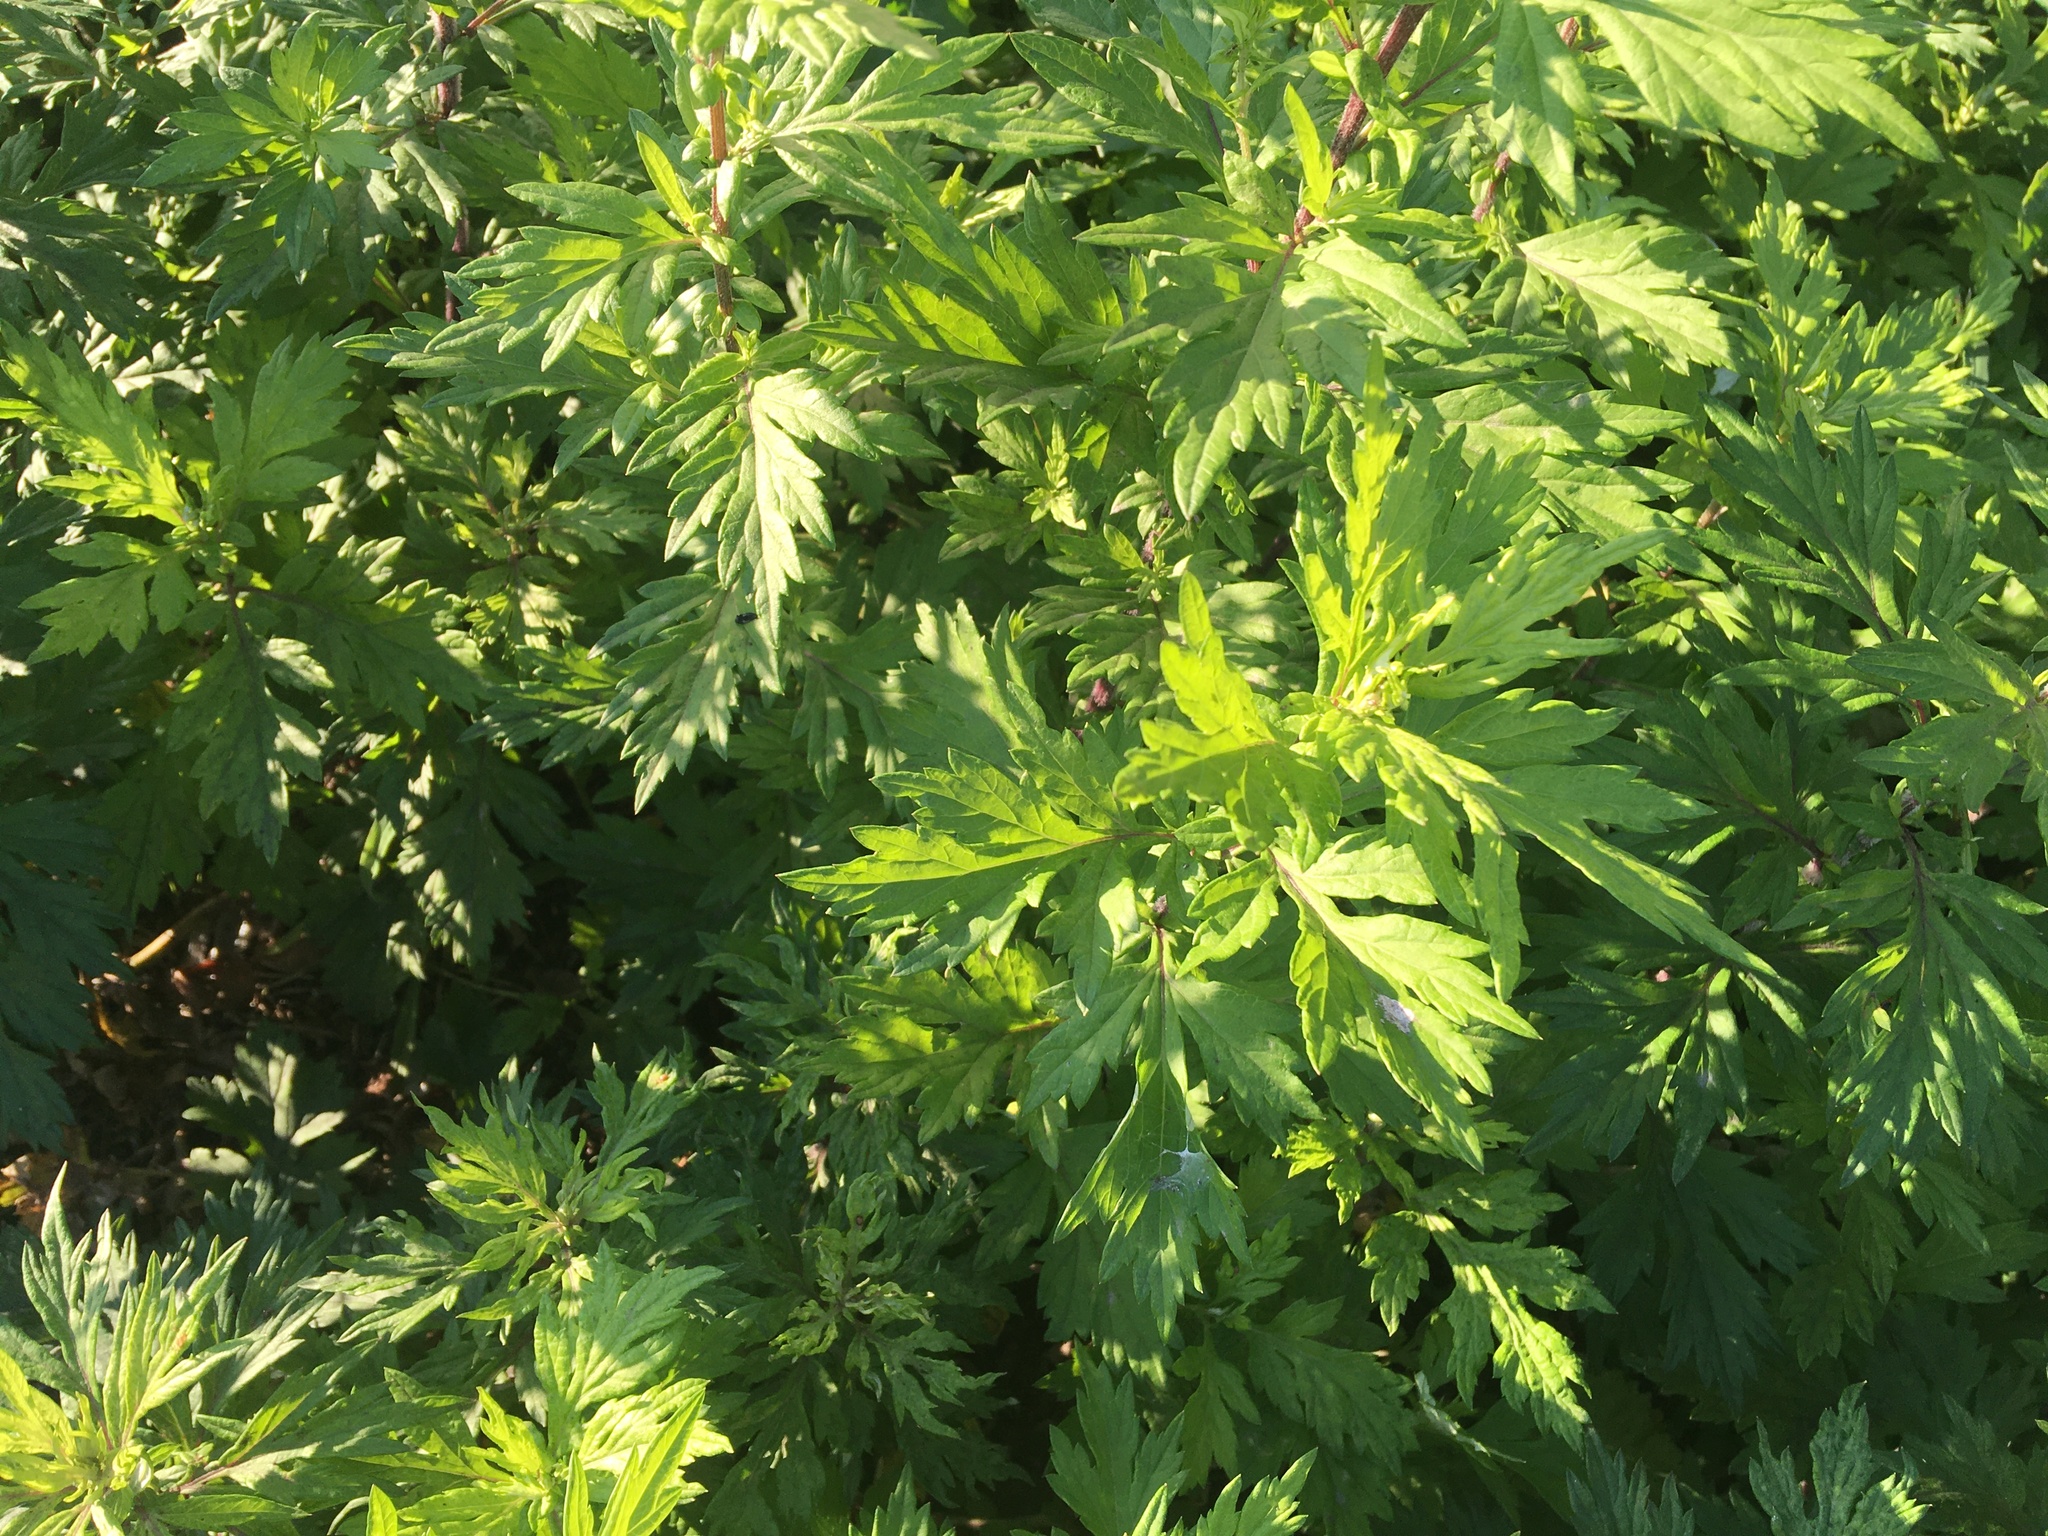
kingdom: Plantae
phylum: Tracheophyta
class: Magnoliopsida
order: Asterales
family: Asteraceae
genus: Artemisia
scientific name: Artemisia vulgaris
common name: Mugwort
